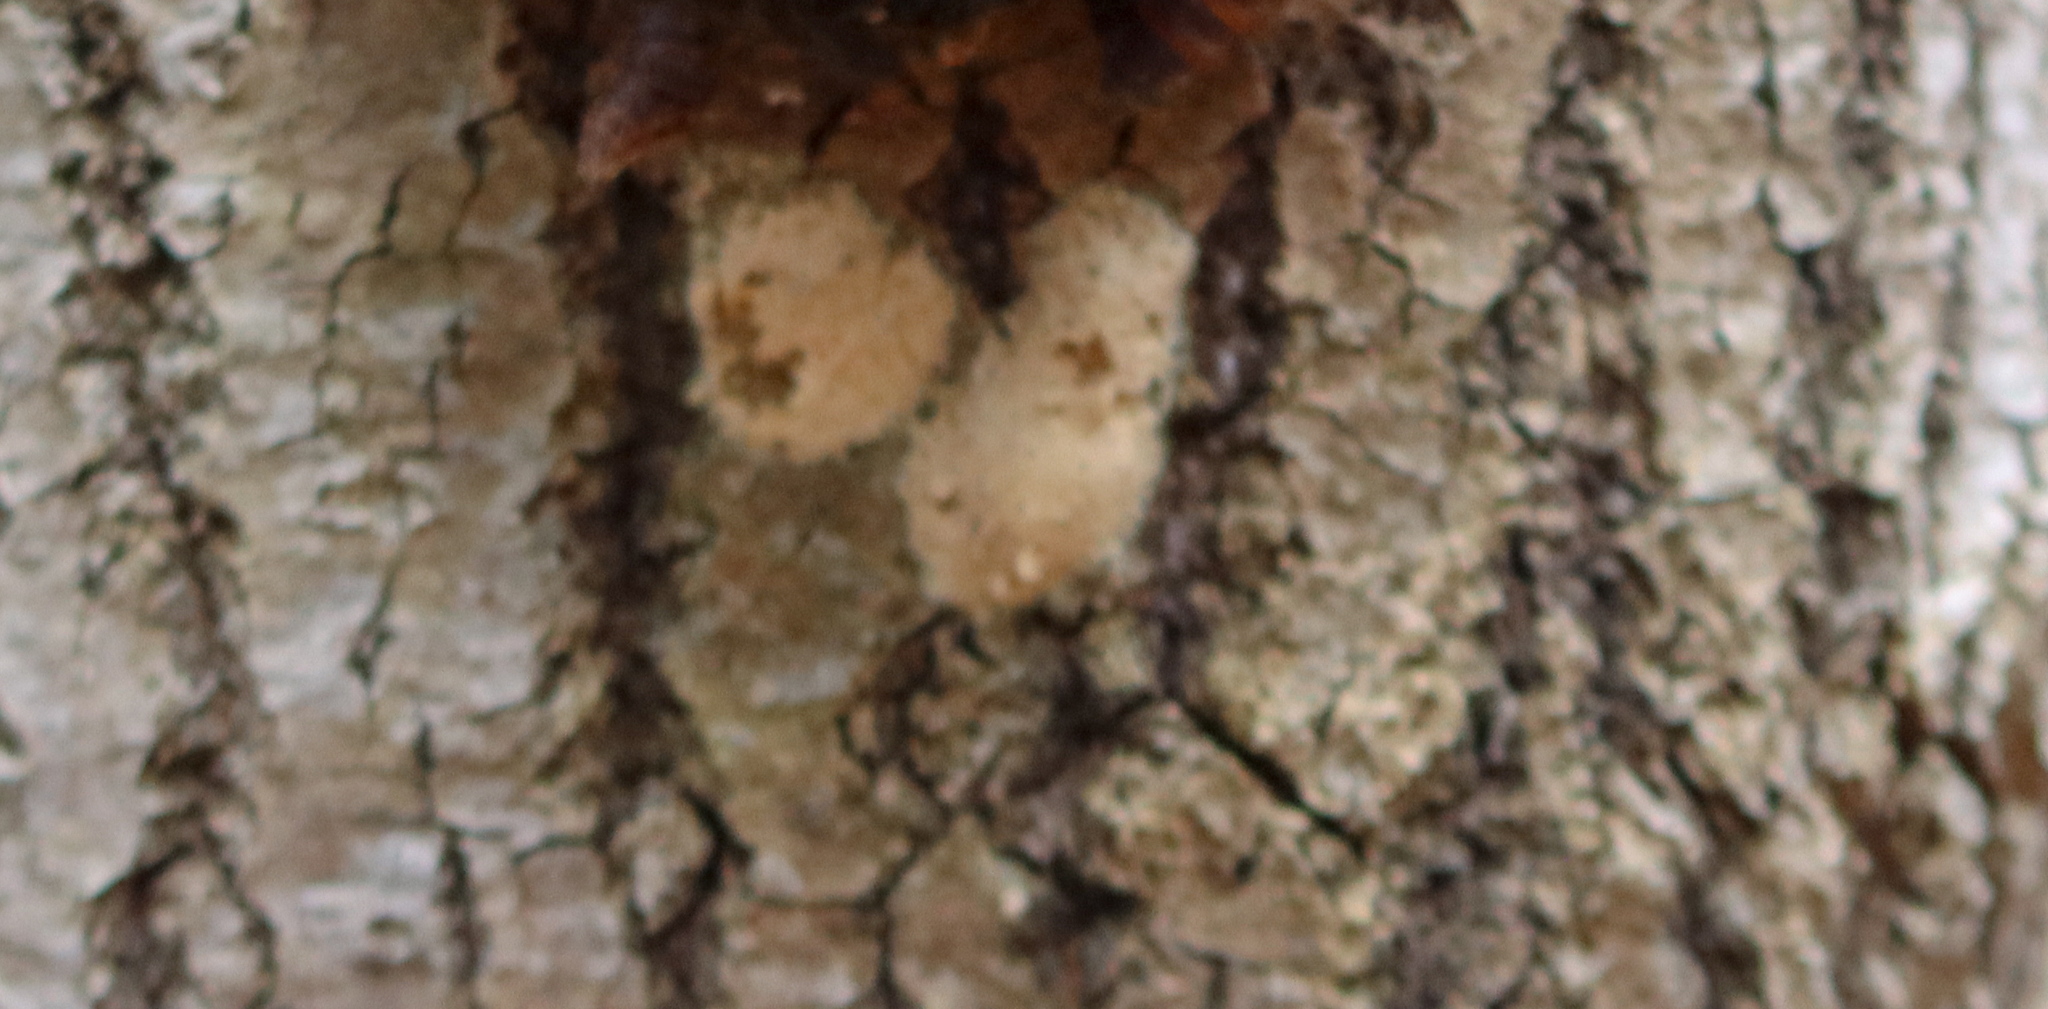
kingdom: Animalia
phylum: Arthropoda
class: Insecta
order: Lepidoptera
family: Erebidae
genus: Lymantria
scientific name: Lymantria dispar
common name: Gypsy moth
